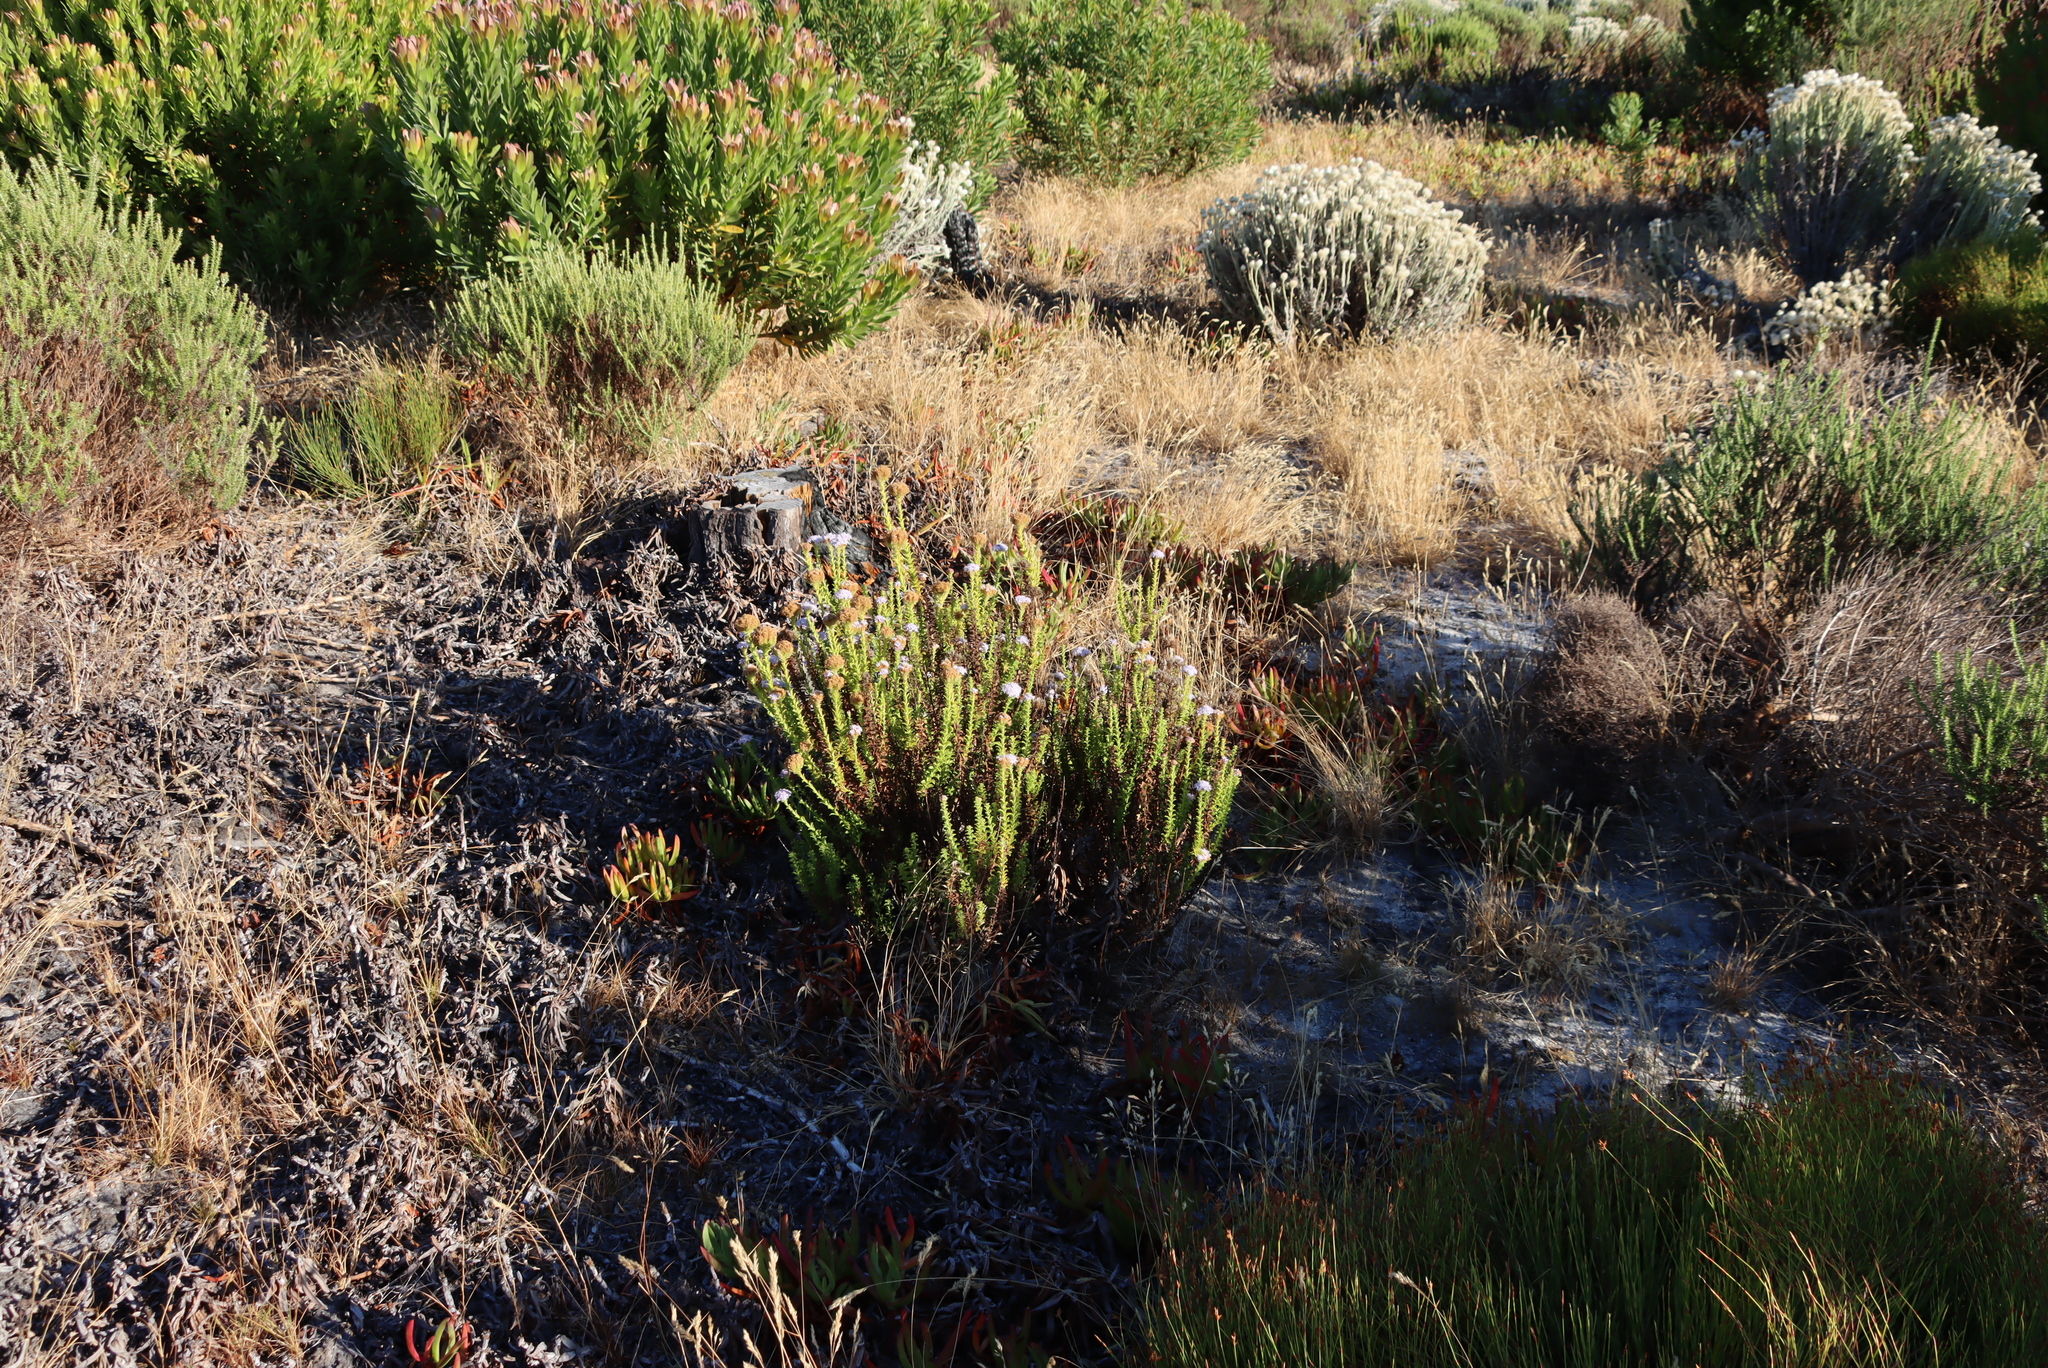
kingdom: Plantae
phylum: Tracheophyta
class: Magnoliopsida
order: Lamiales
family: Scrophulariaceae
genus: Pseudoselago
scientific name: Pseudoselago serrata
